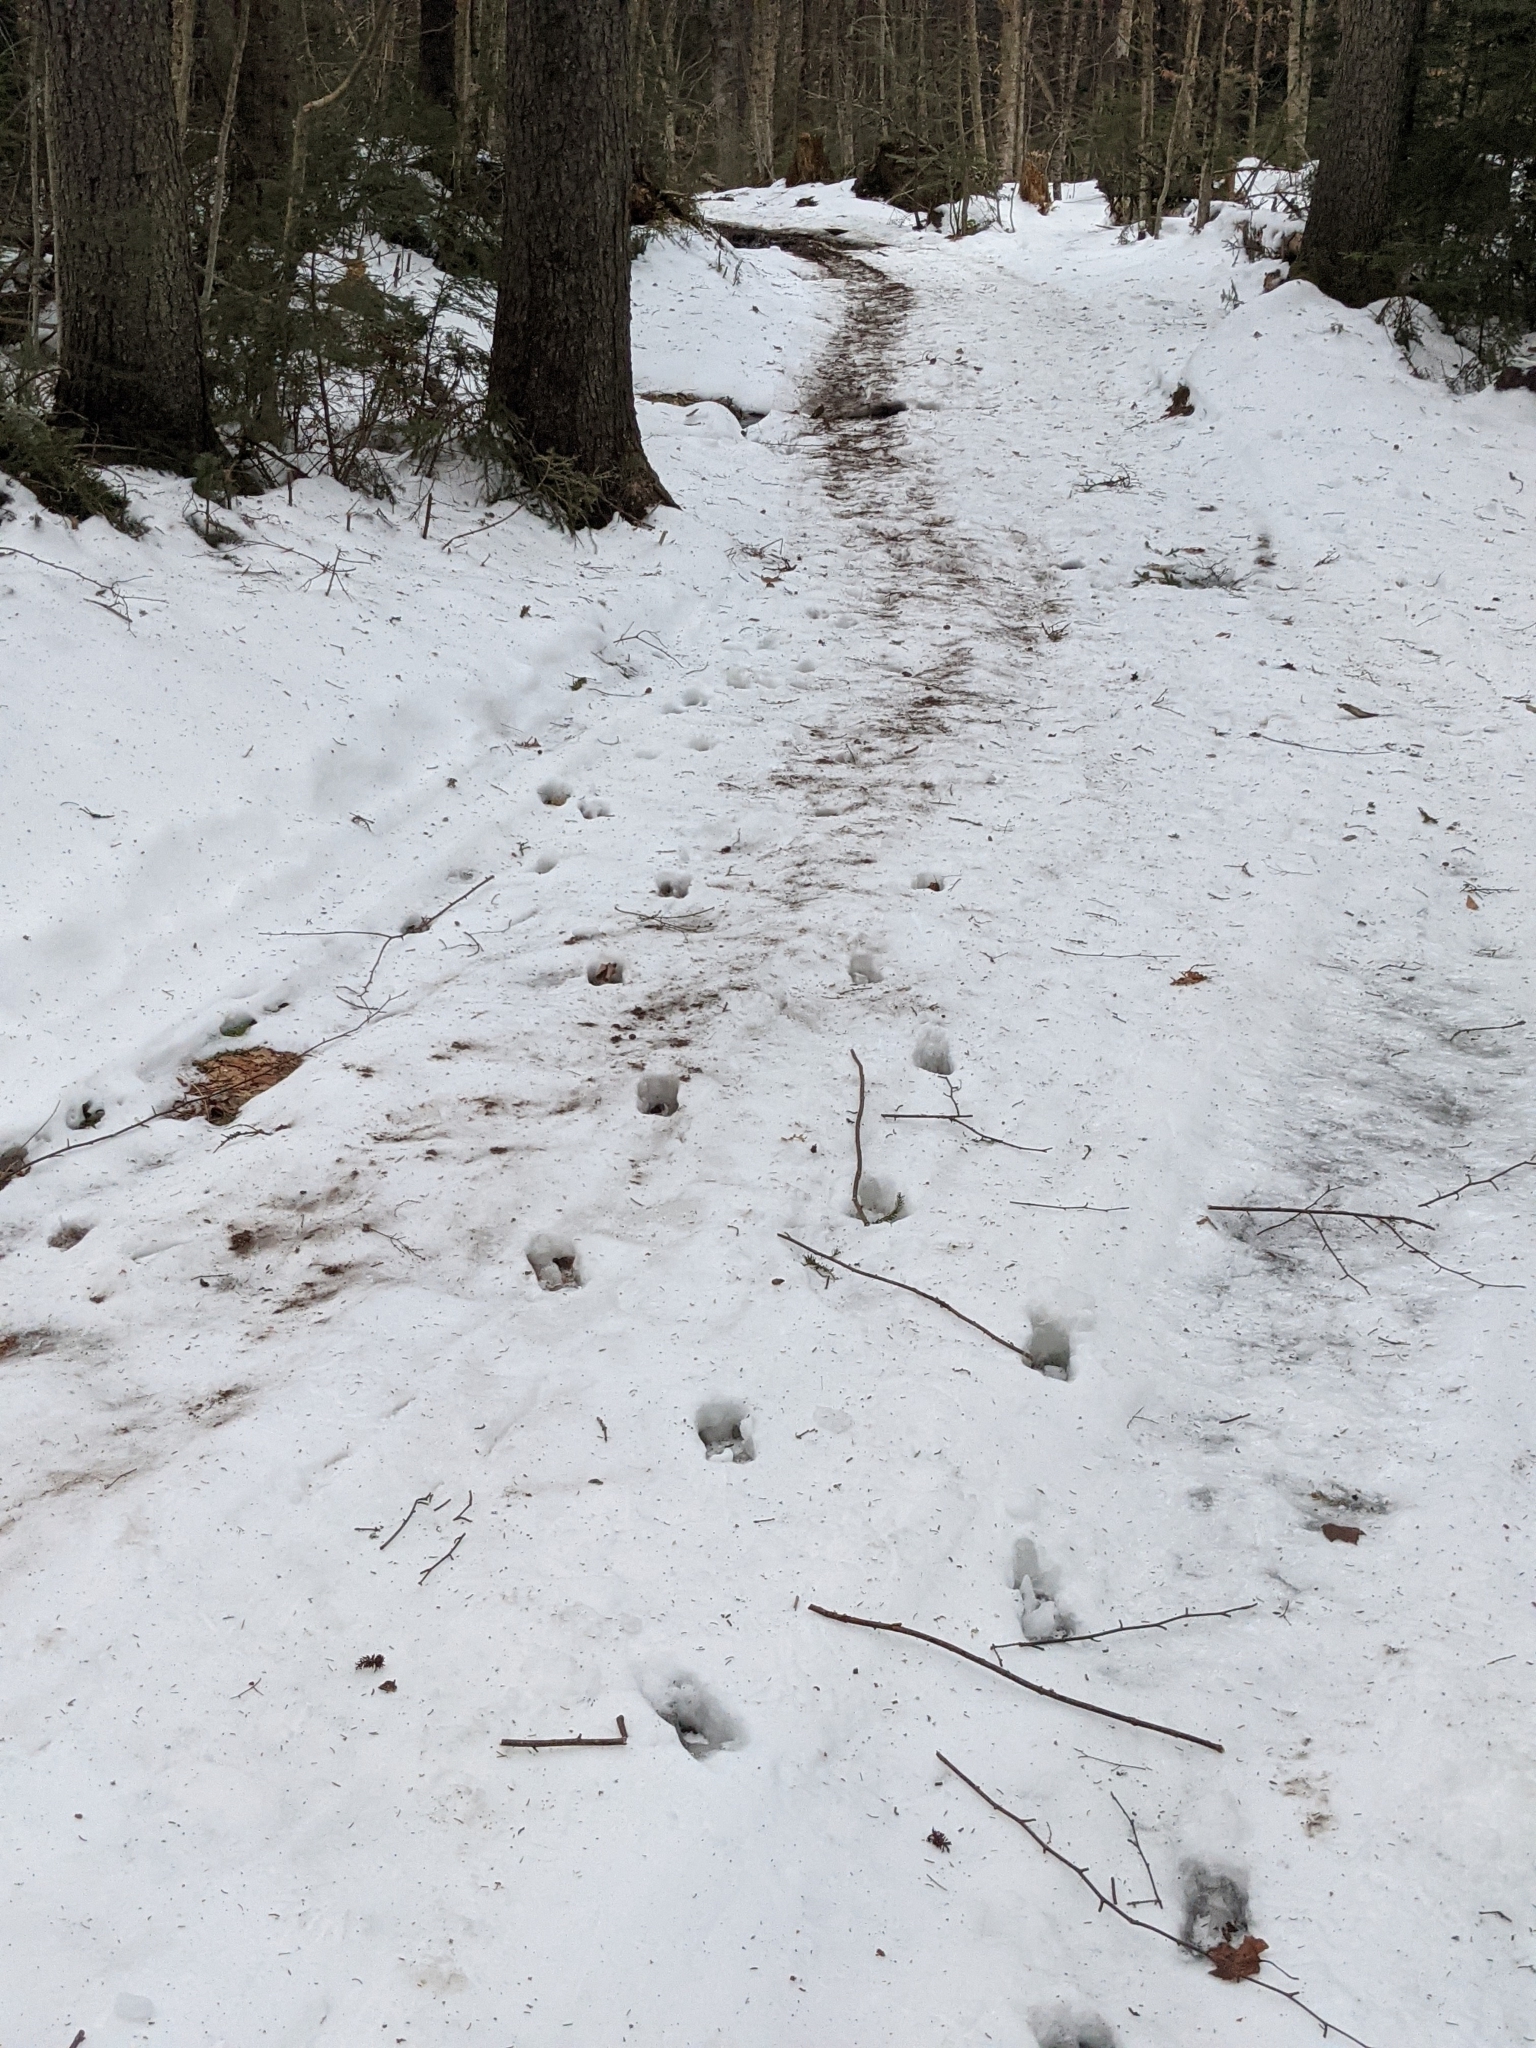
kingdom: Animalia
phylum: Chordata
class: Mammalia
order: Artiodactyla
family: Cervidae
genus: Odocoileus
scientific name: Odocoileus virginianus
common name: White-tailed deer
